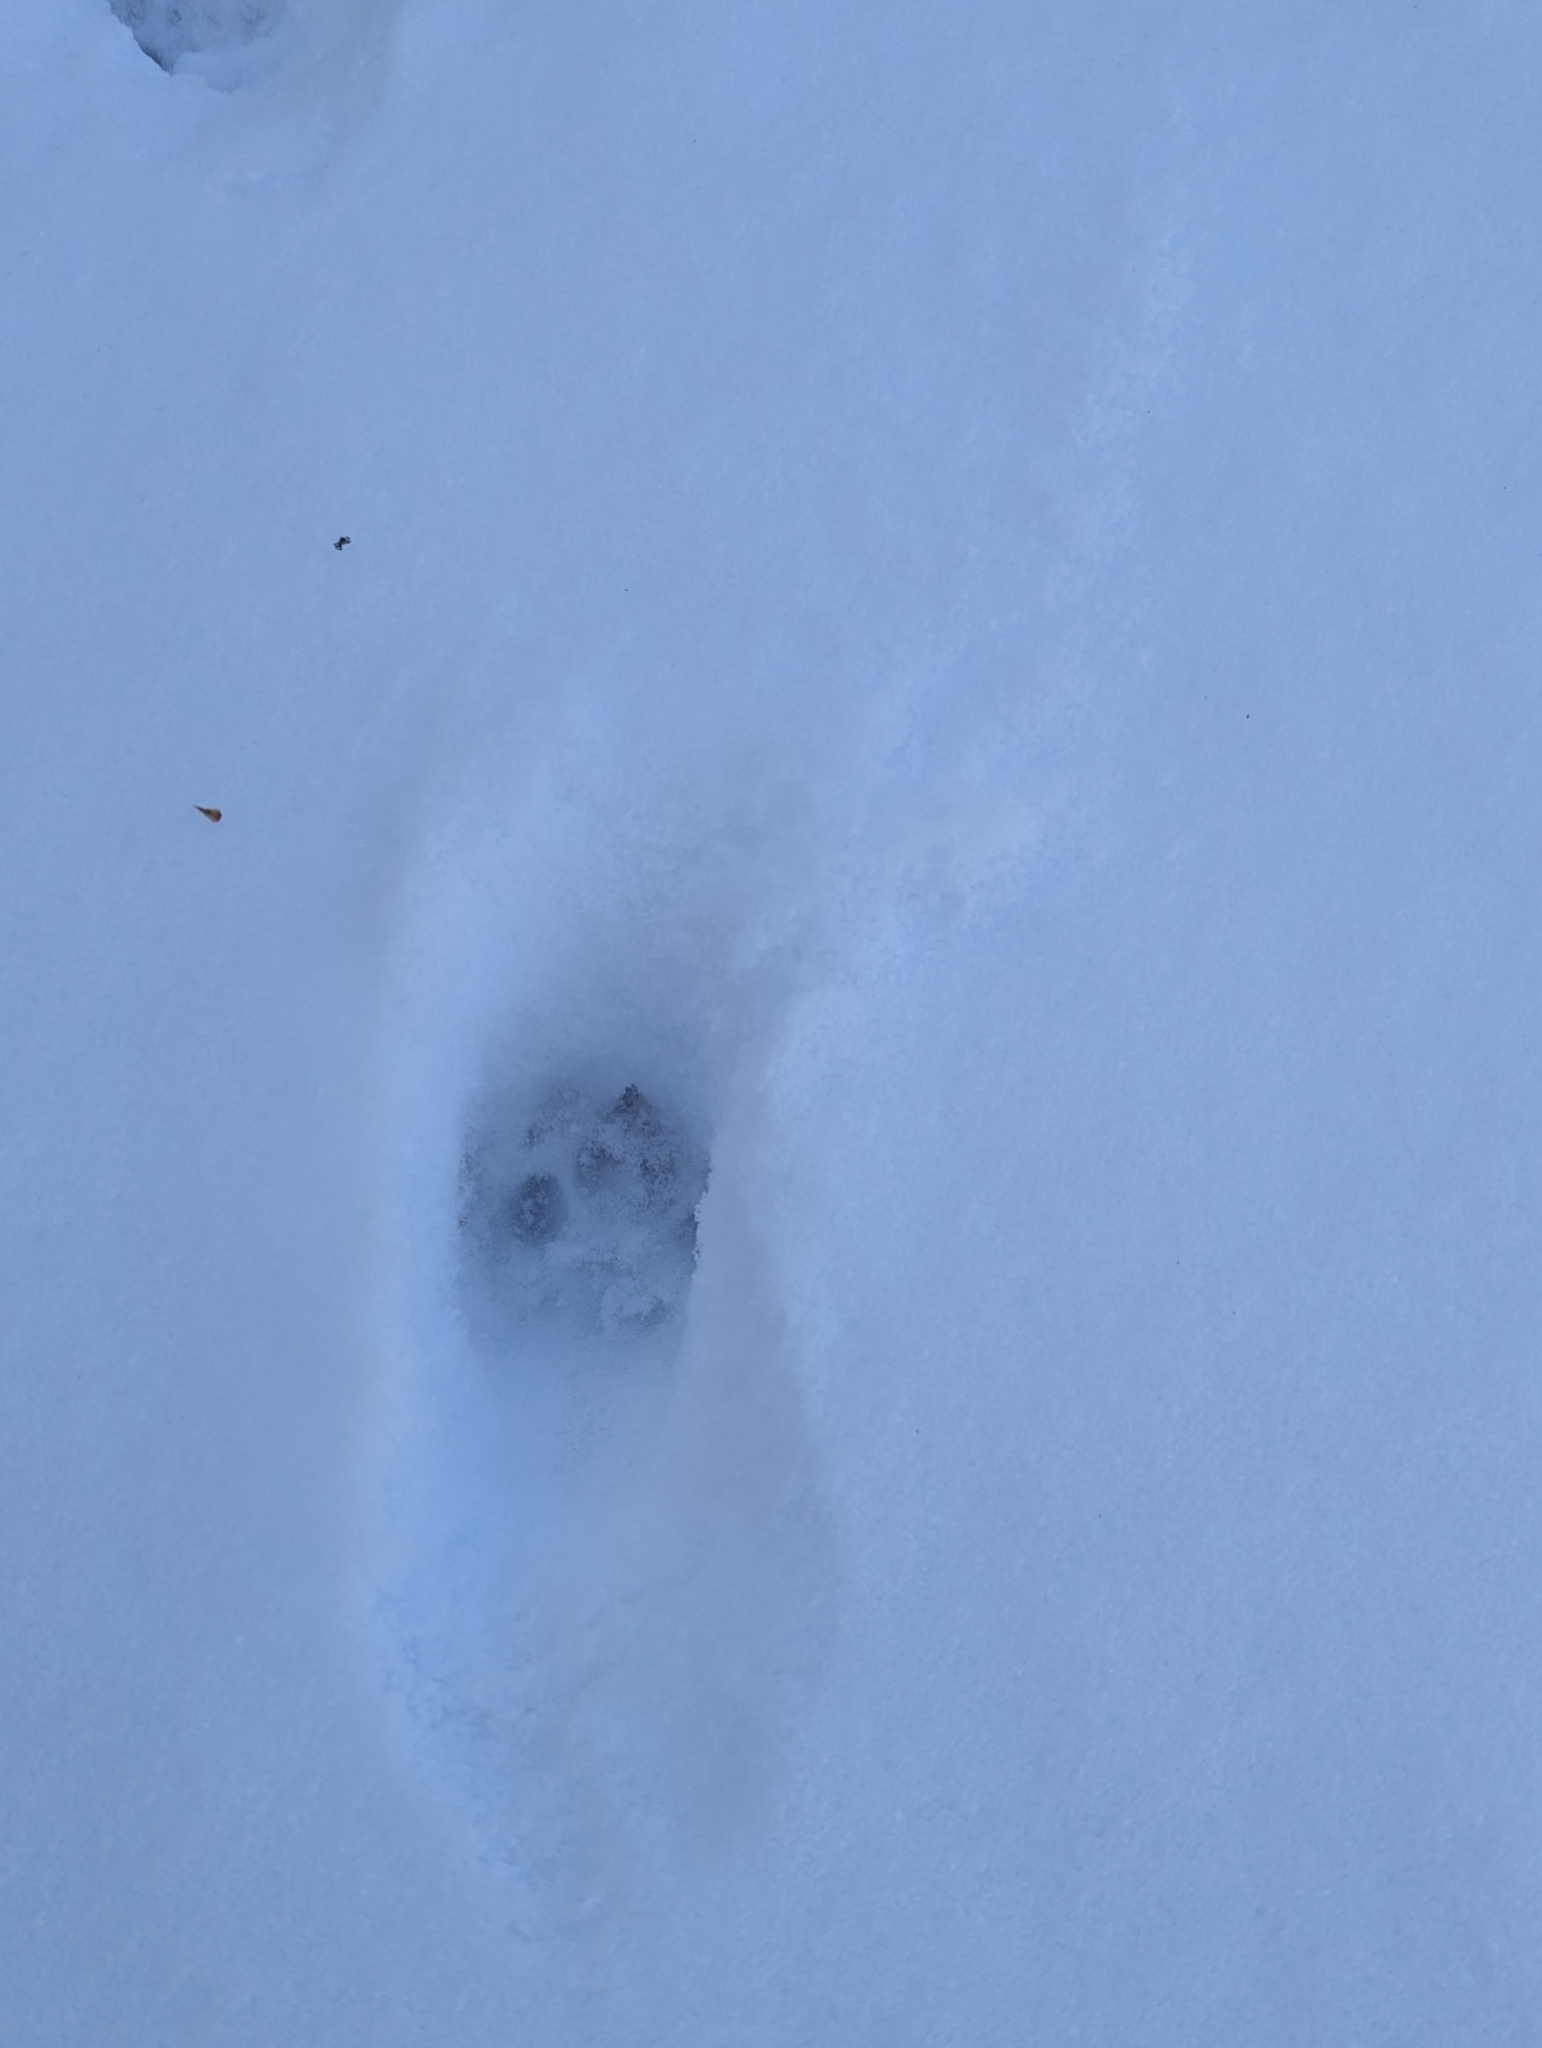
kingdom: Animalia
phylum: Chordata
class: Mammalia
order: Carnivora
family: Felidae
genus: Felis
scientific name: Felis catus
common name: Domestic cat
